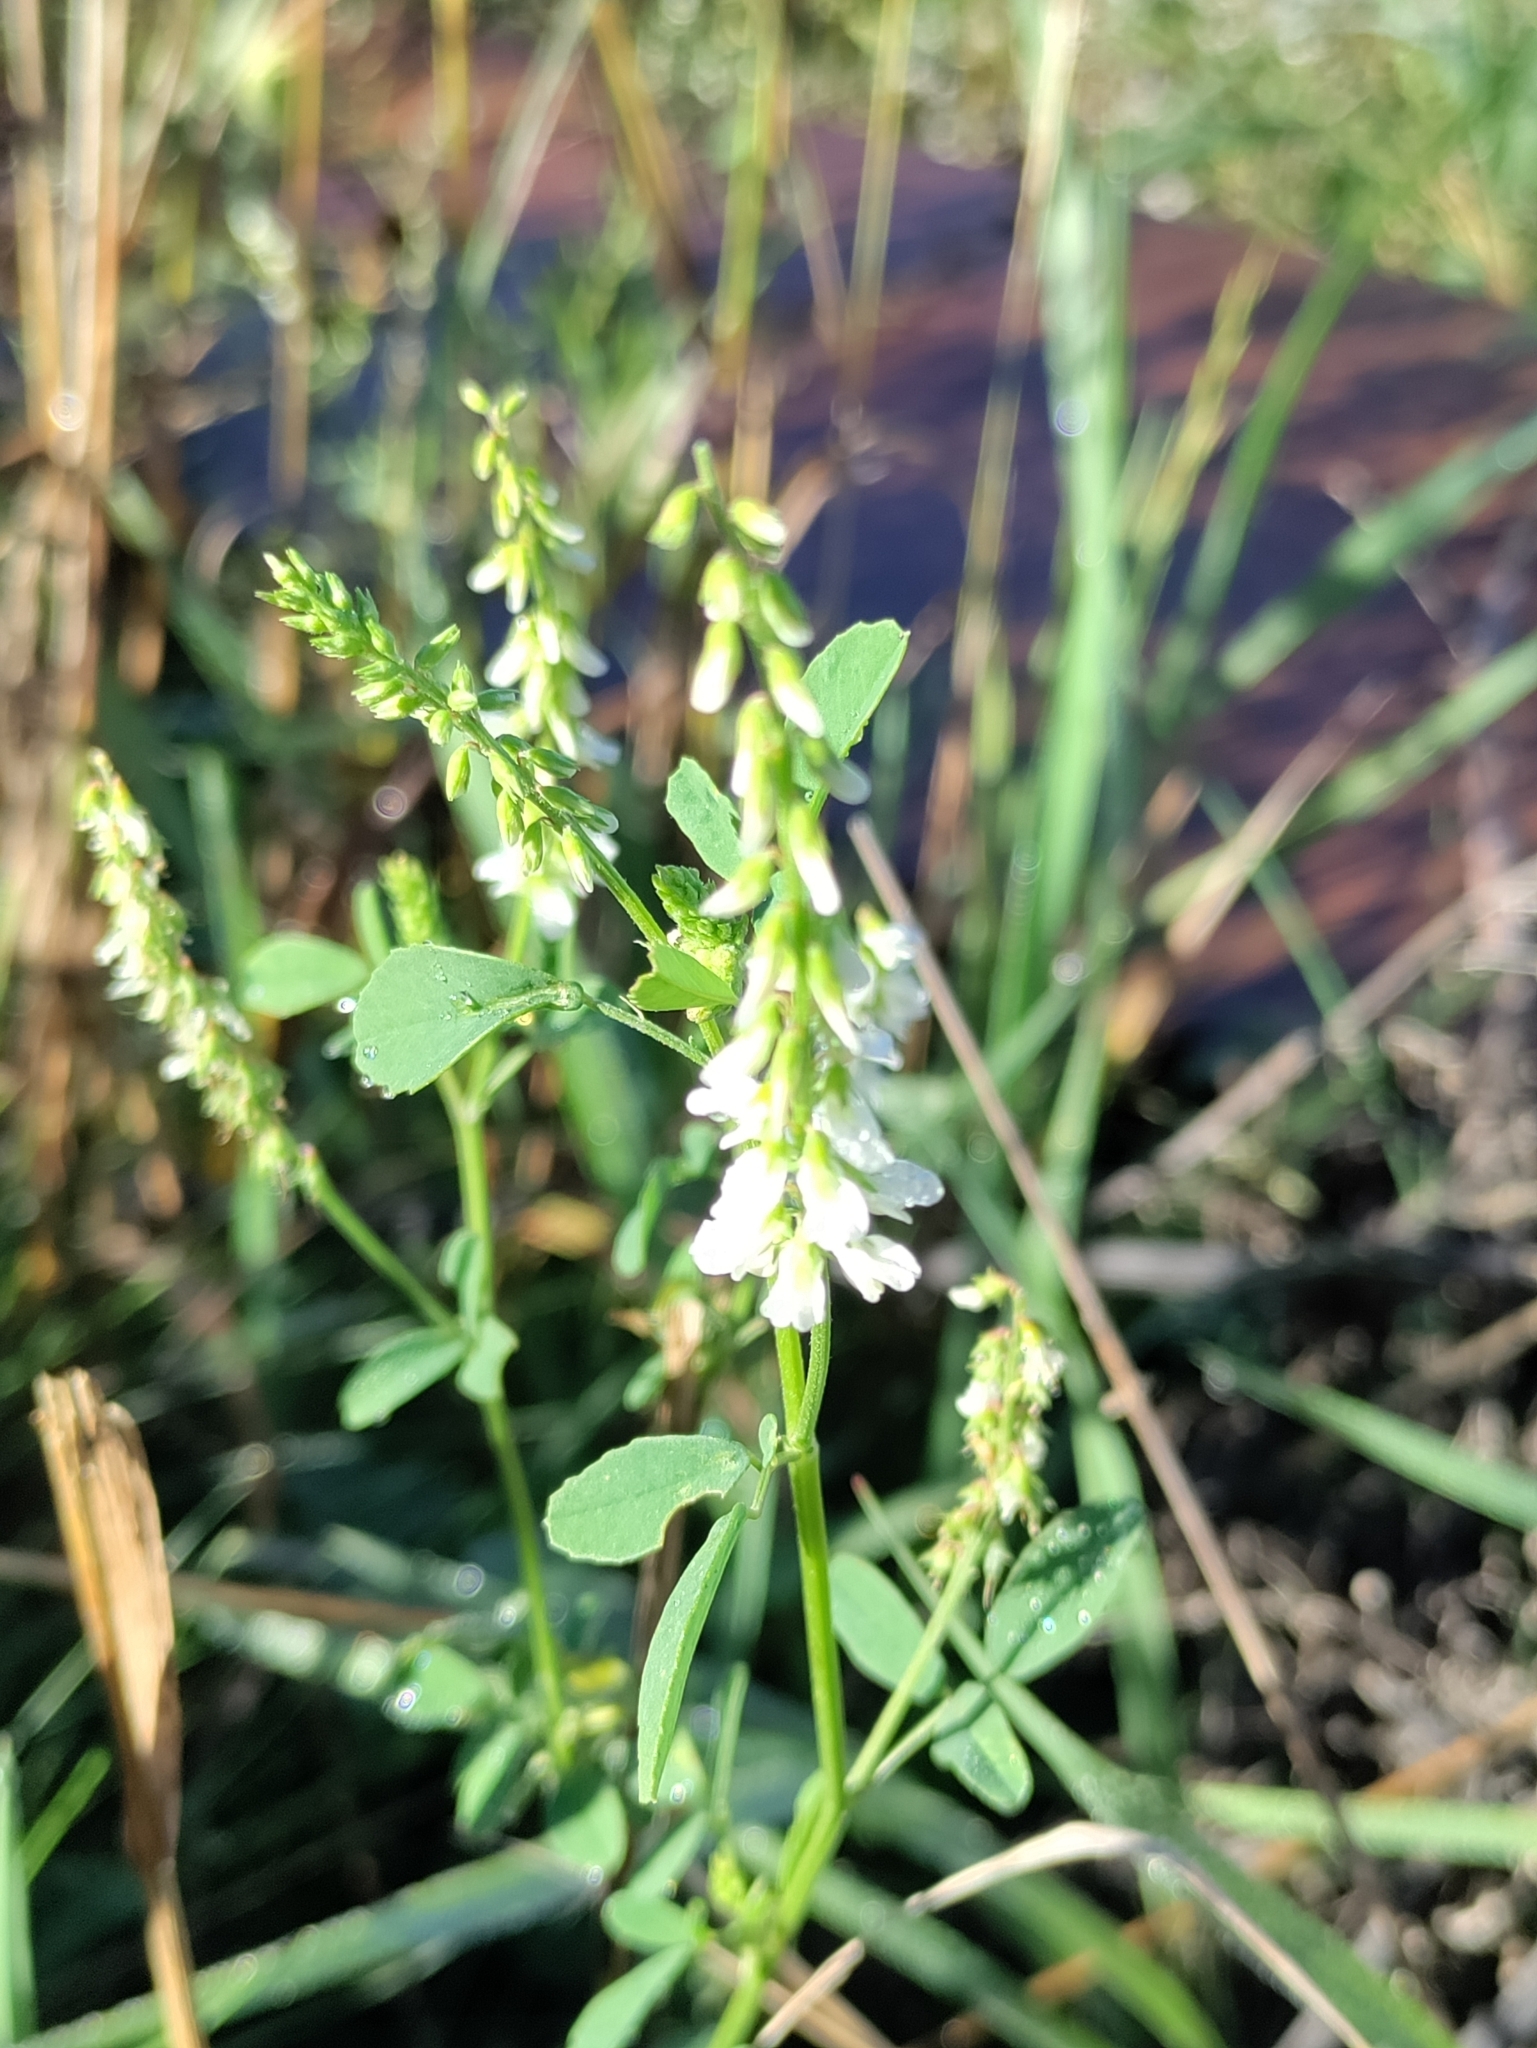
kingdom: Plantae
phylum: Tracheophyta
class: Magnoliopsida
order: Fabales
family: Fabaceae
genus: Melilotus
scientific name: Melilotus albus
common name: White melilot
